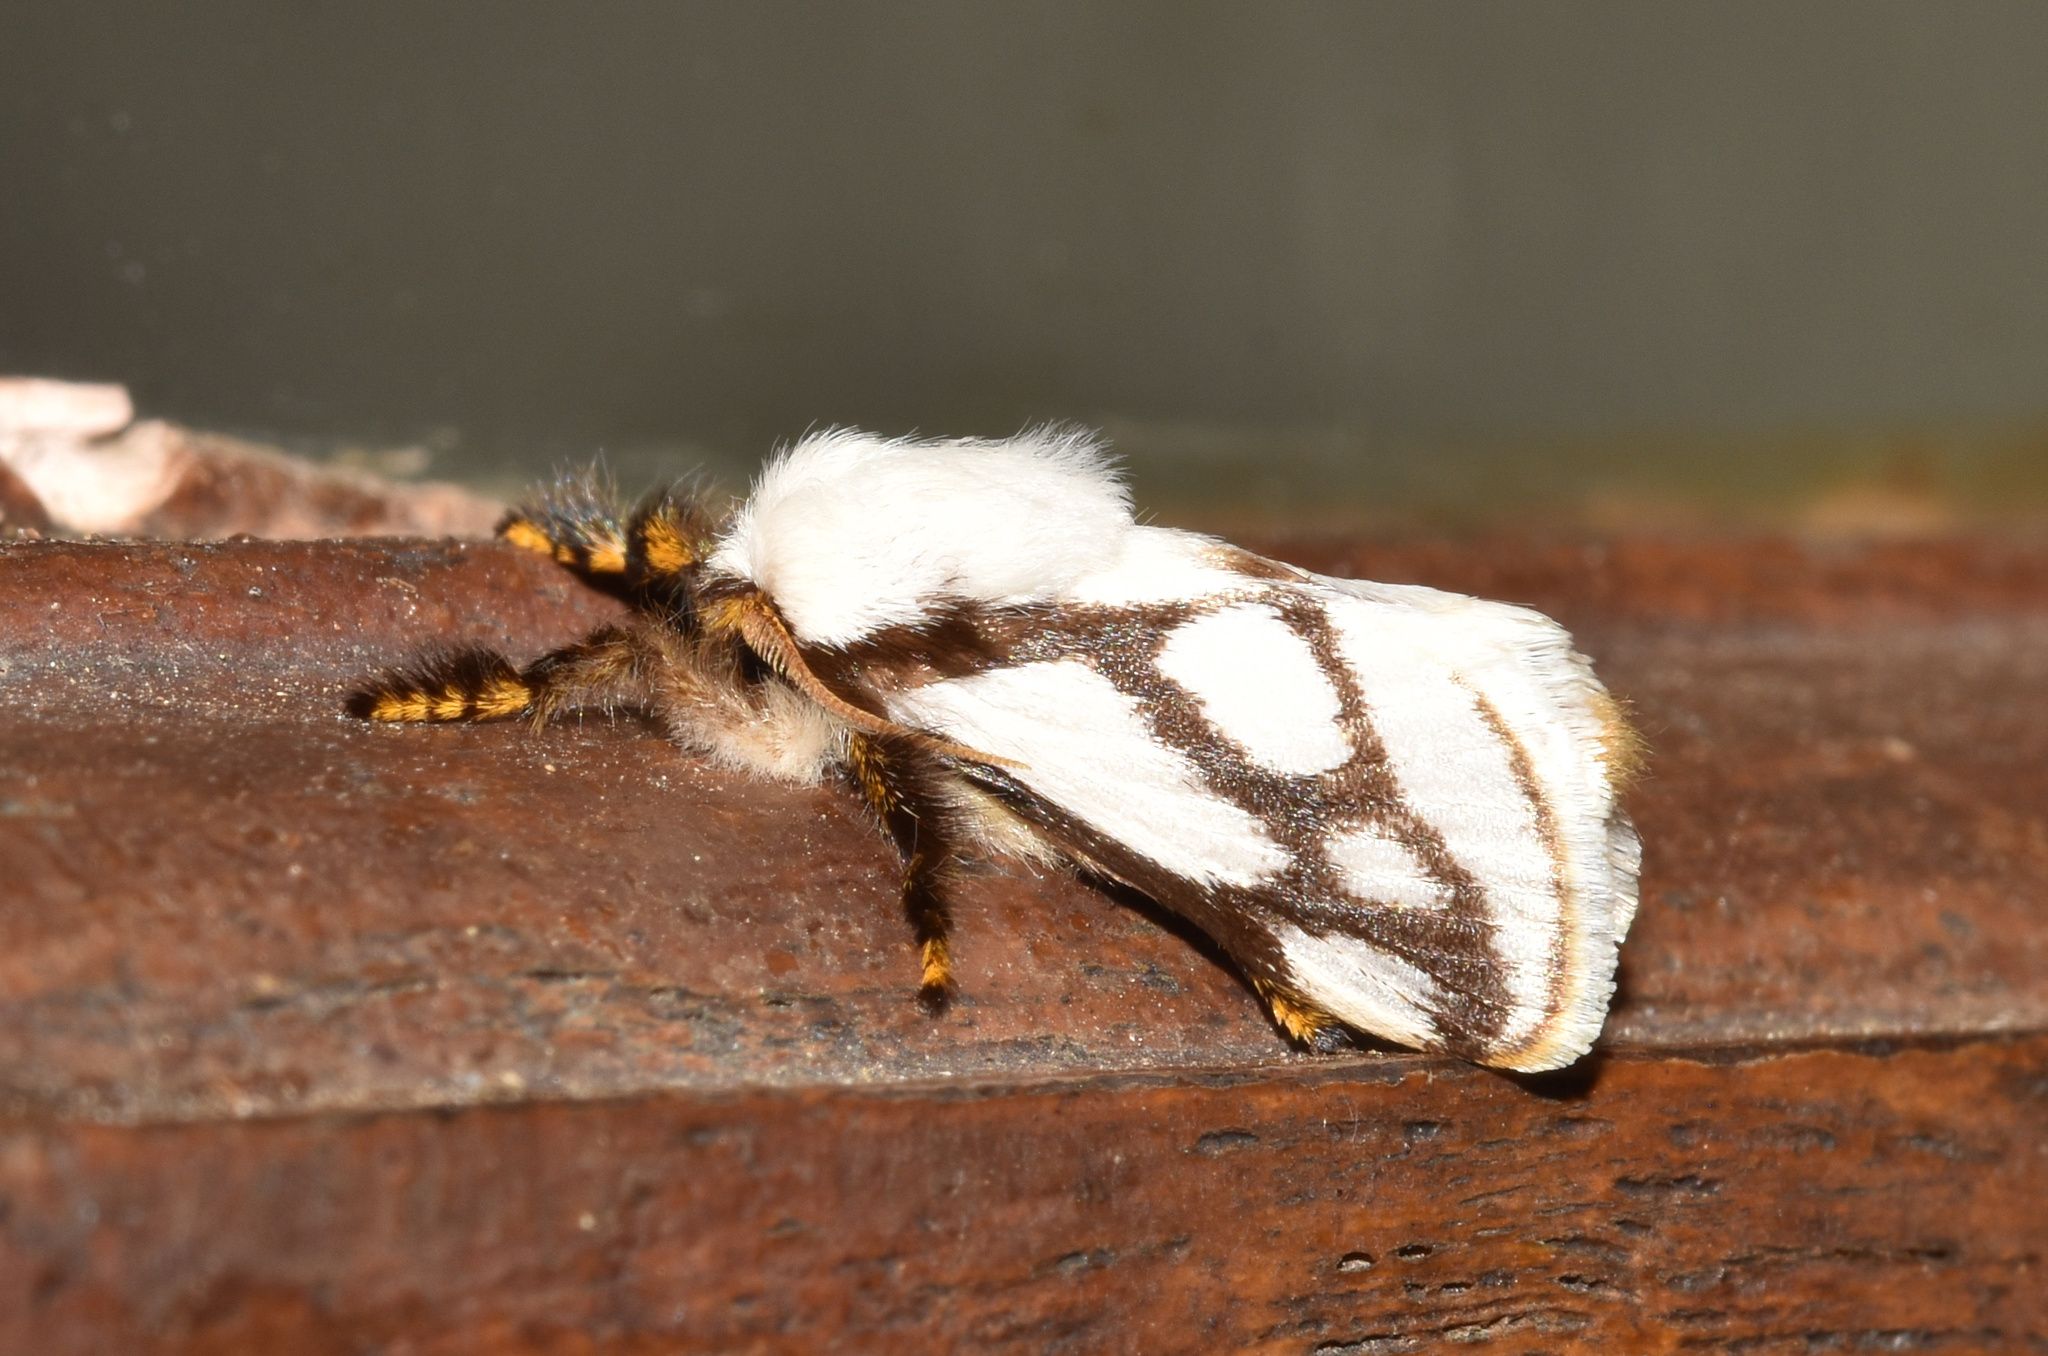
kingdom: Animalia
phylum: Arthropoda
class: Insecta
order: Lepidoptera
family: Limacodidae
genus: Parapluda
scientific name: Parapluda invitabilis
